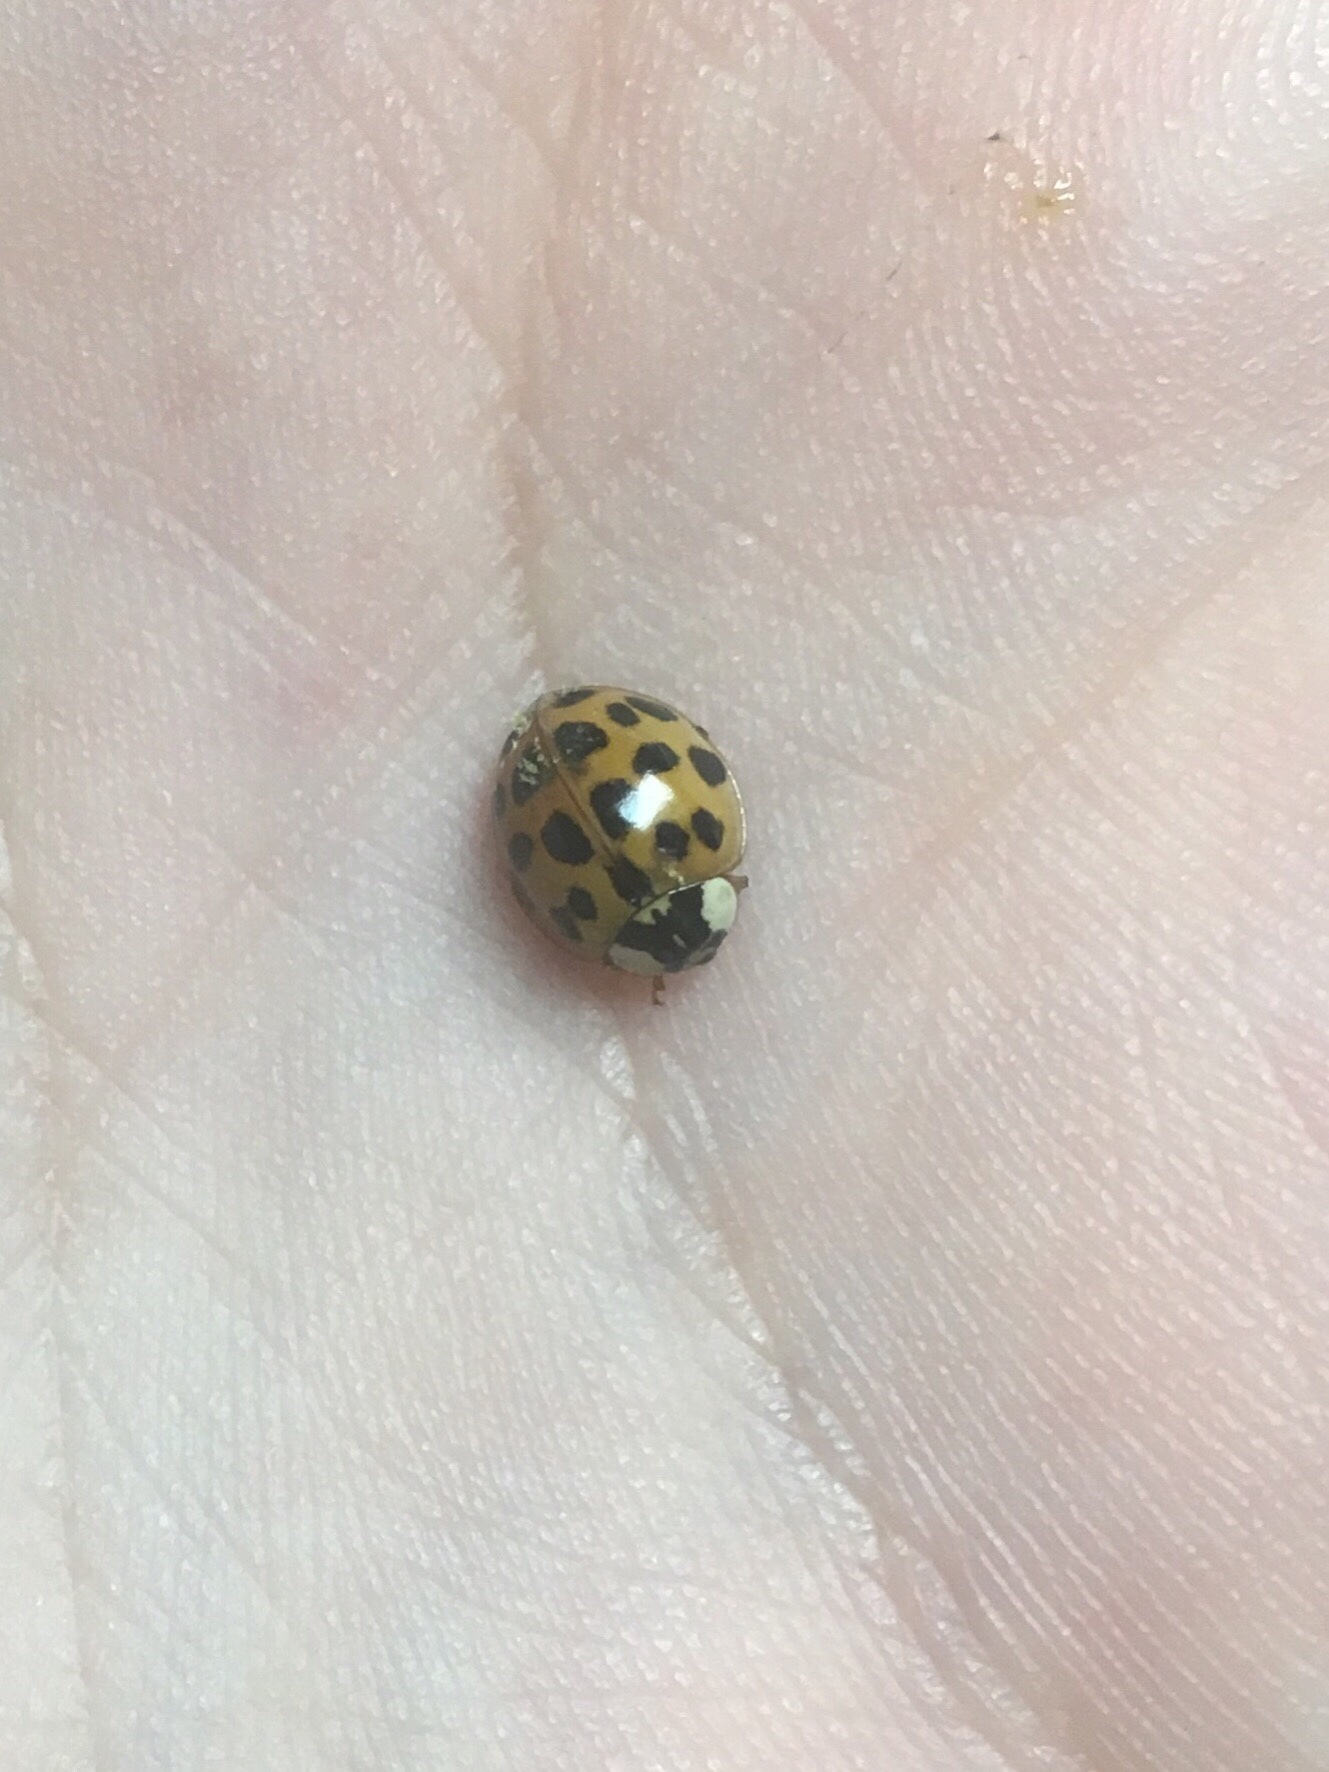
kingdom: Animalia
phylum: Arthropoda
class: Insecta
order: Coleoptera
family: Coccinellidae
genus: Harmonia
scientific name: Harmonia axyridis
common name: Harlequin ladybird
